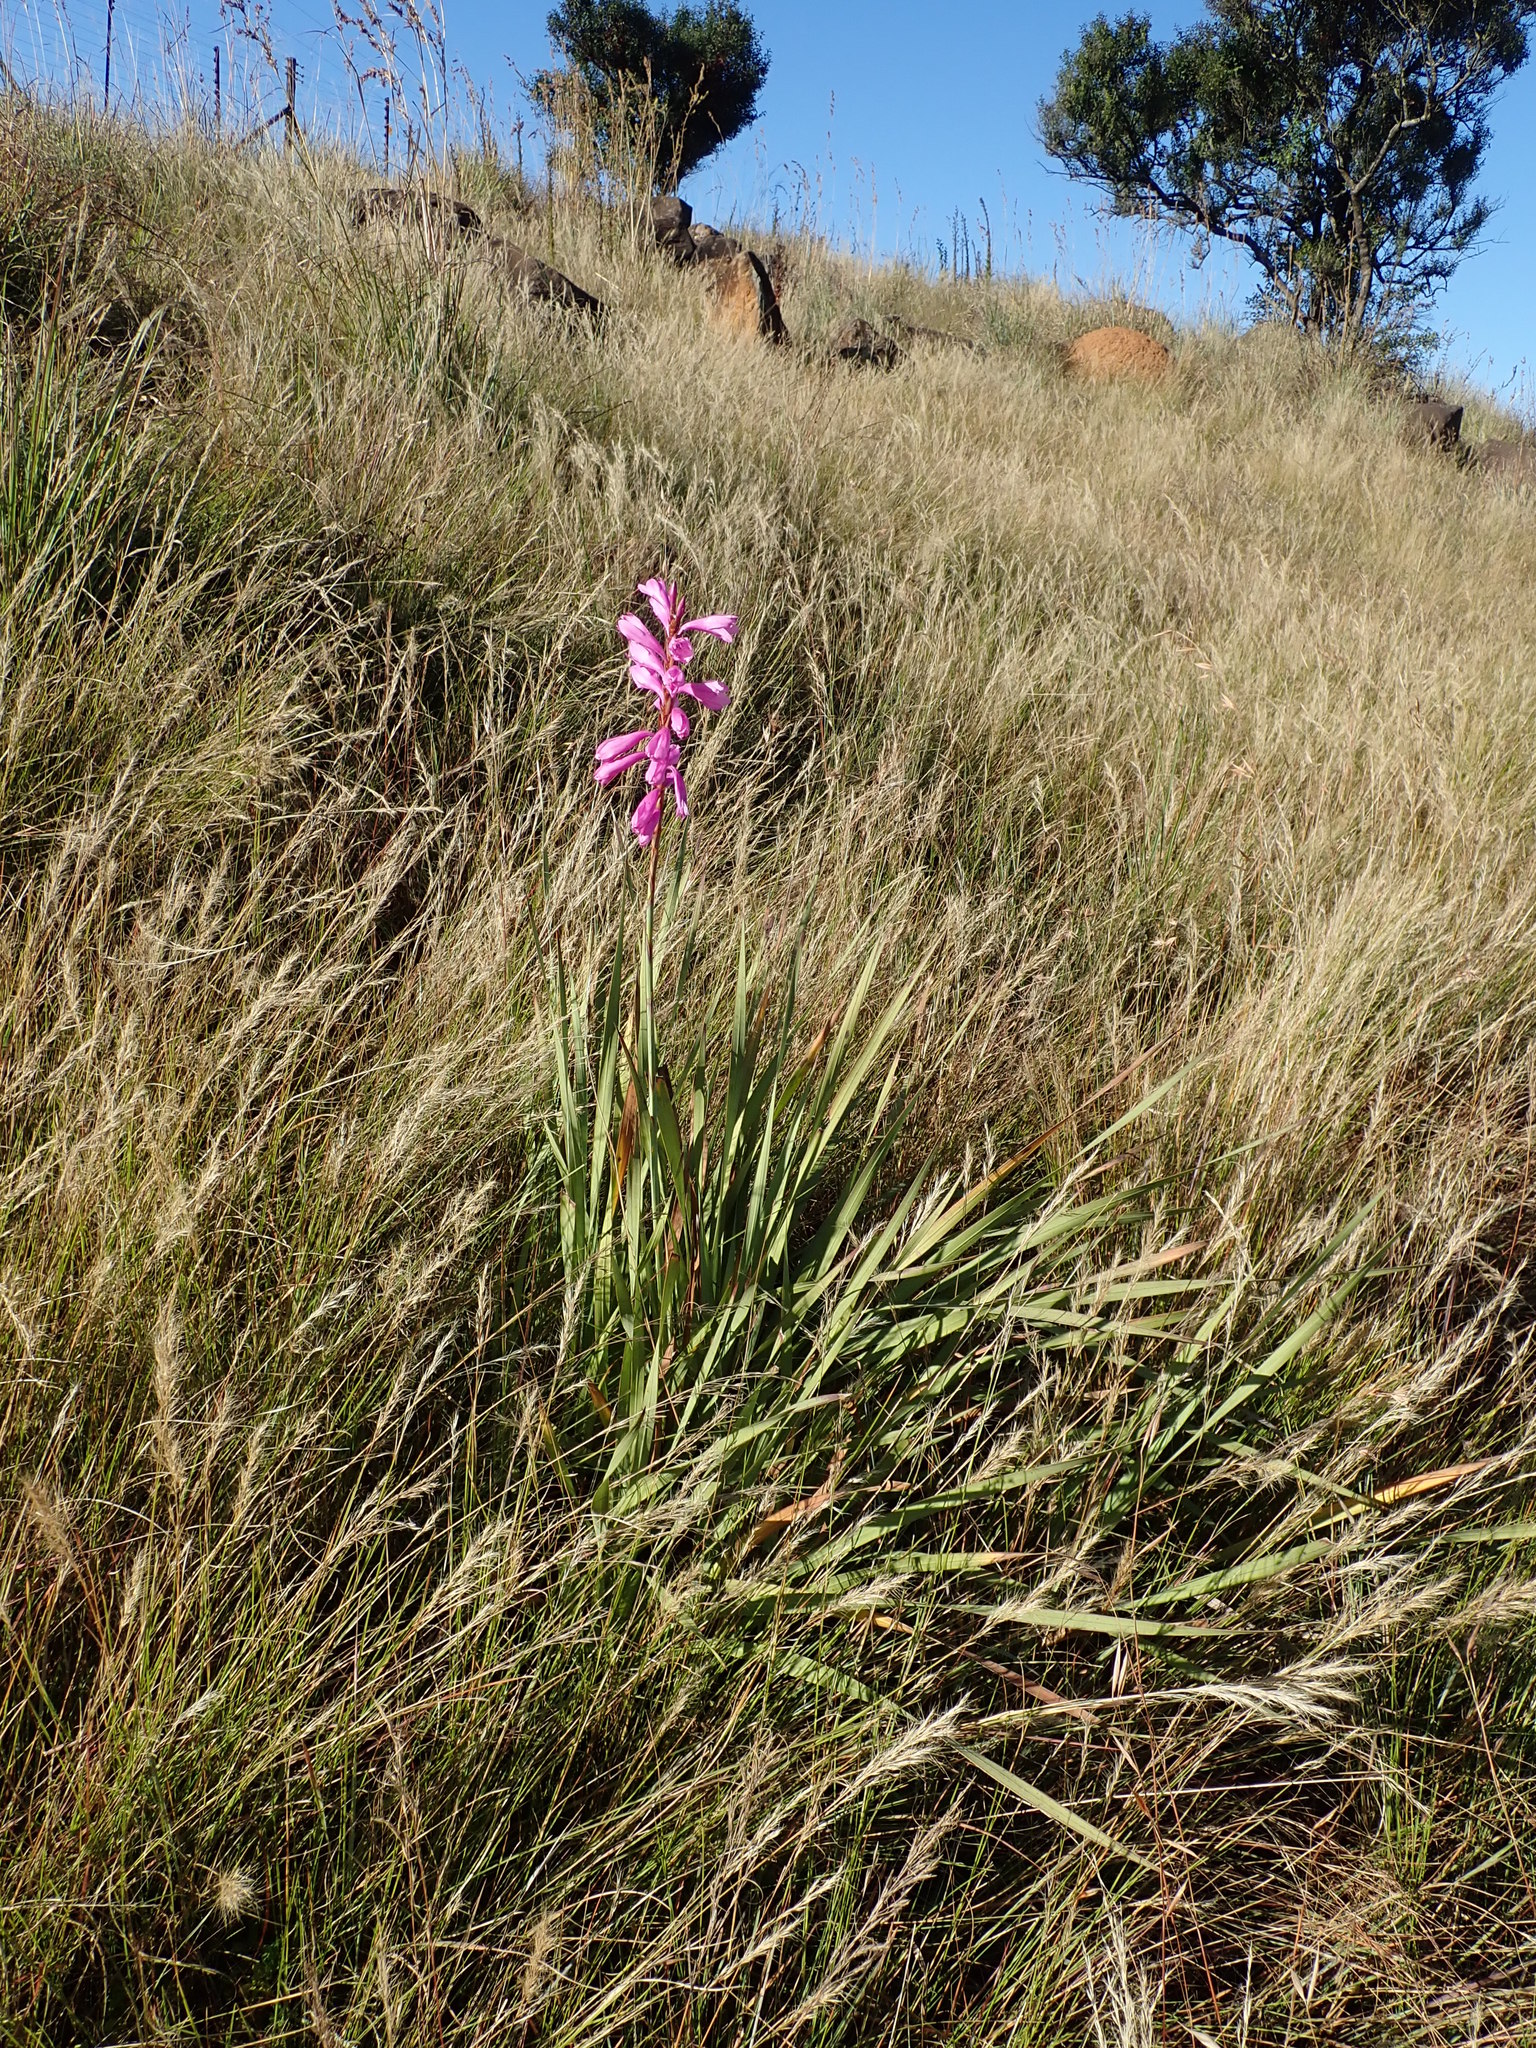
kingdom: Plantae
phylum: Tracheophyta
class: Liliopsida
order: Asparagales
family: Iridaceae
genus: Watsonia
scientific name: Watsonia confusa
